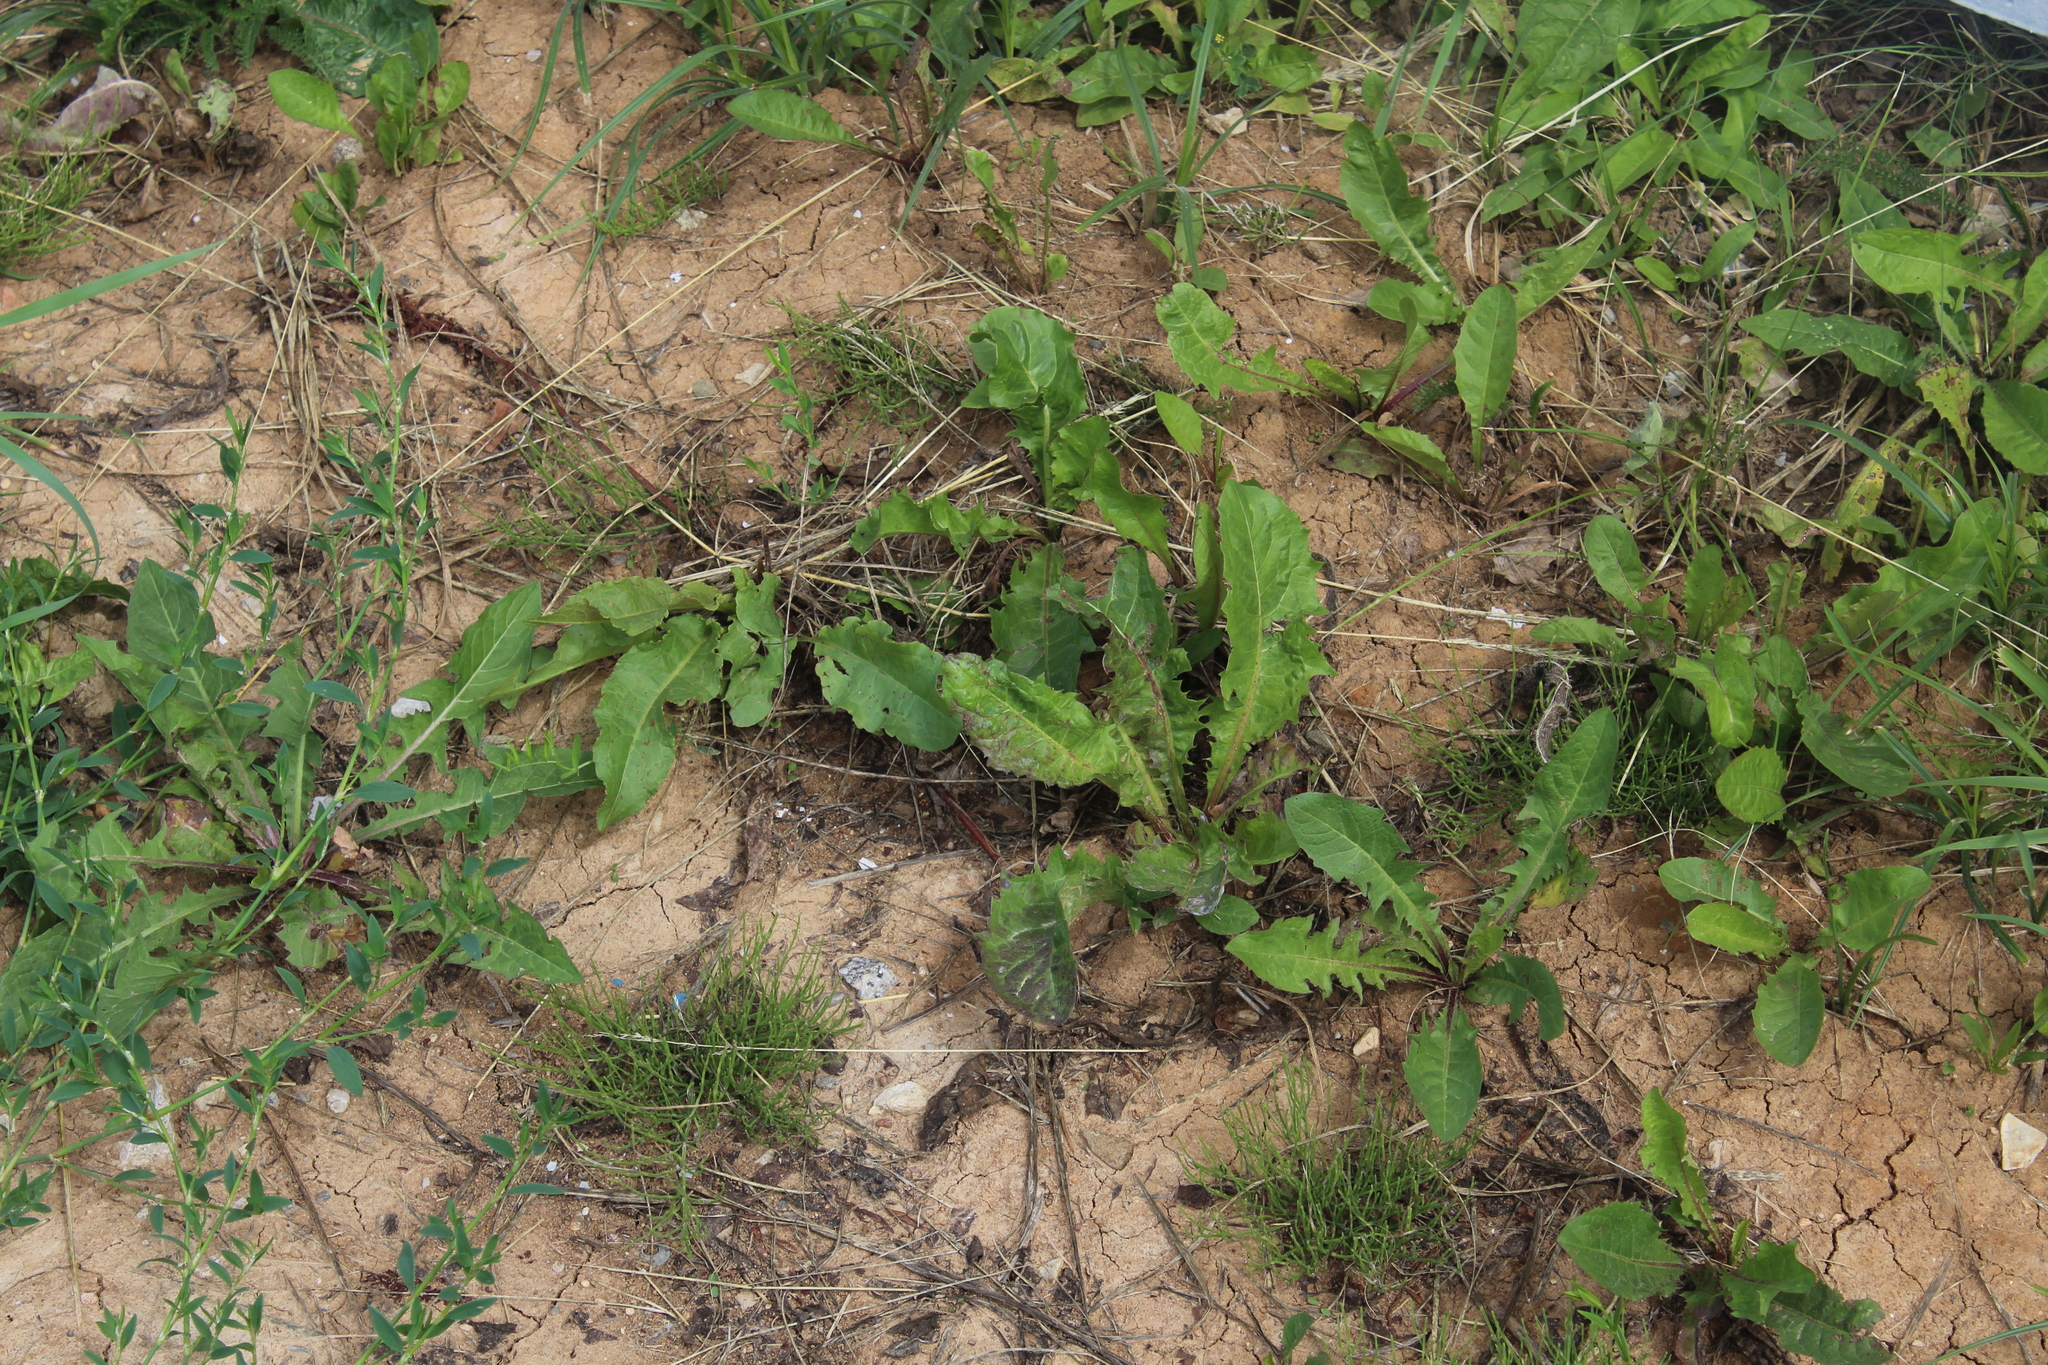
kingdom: Plantae
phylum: Tracheophyta
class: Magnoliopsida
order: Asterales
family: Asteraceae
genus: Taraxacum
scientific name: Taraxacum officinale
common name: Common dandelion
